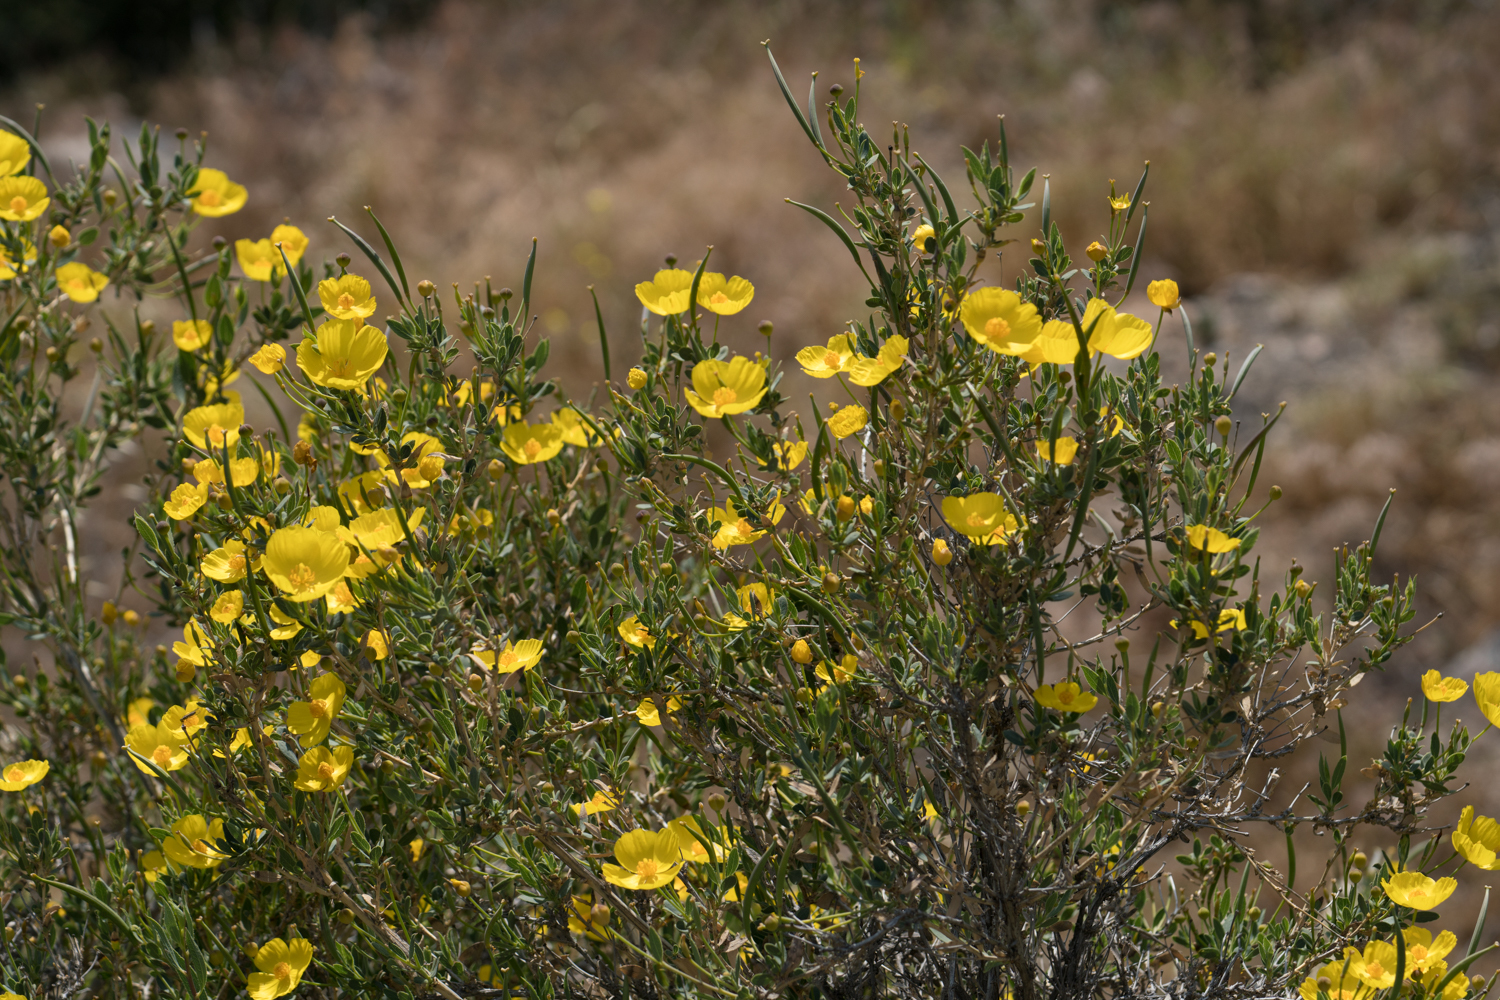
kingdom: Plantae
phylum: Tracheophyta
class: Magnoliopsida
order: Ranunculales
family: Papaveraceae
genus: Dendromecon
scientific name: Dendromecon rigida
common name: Tree poppy
